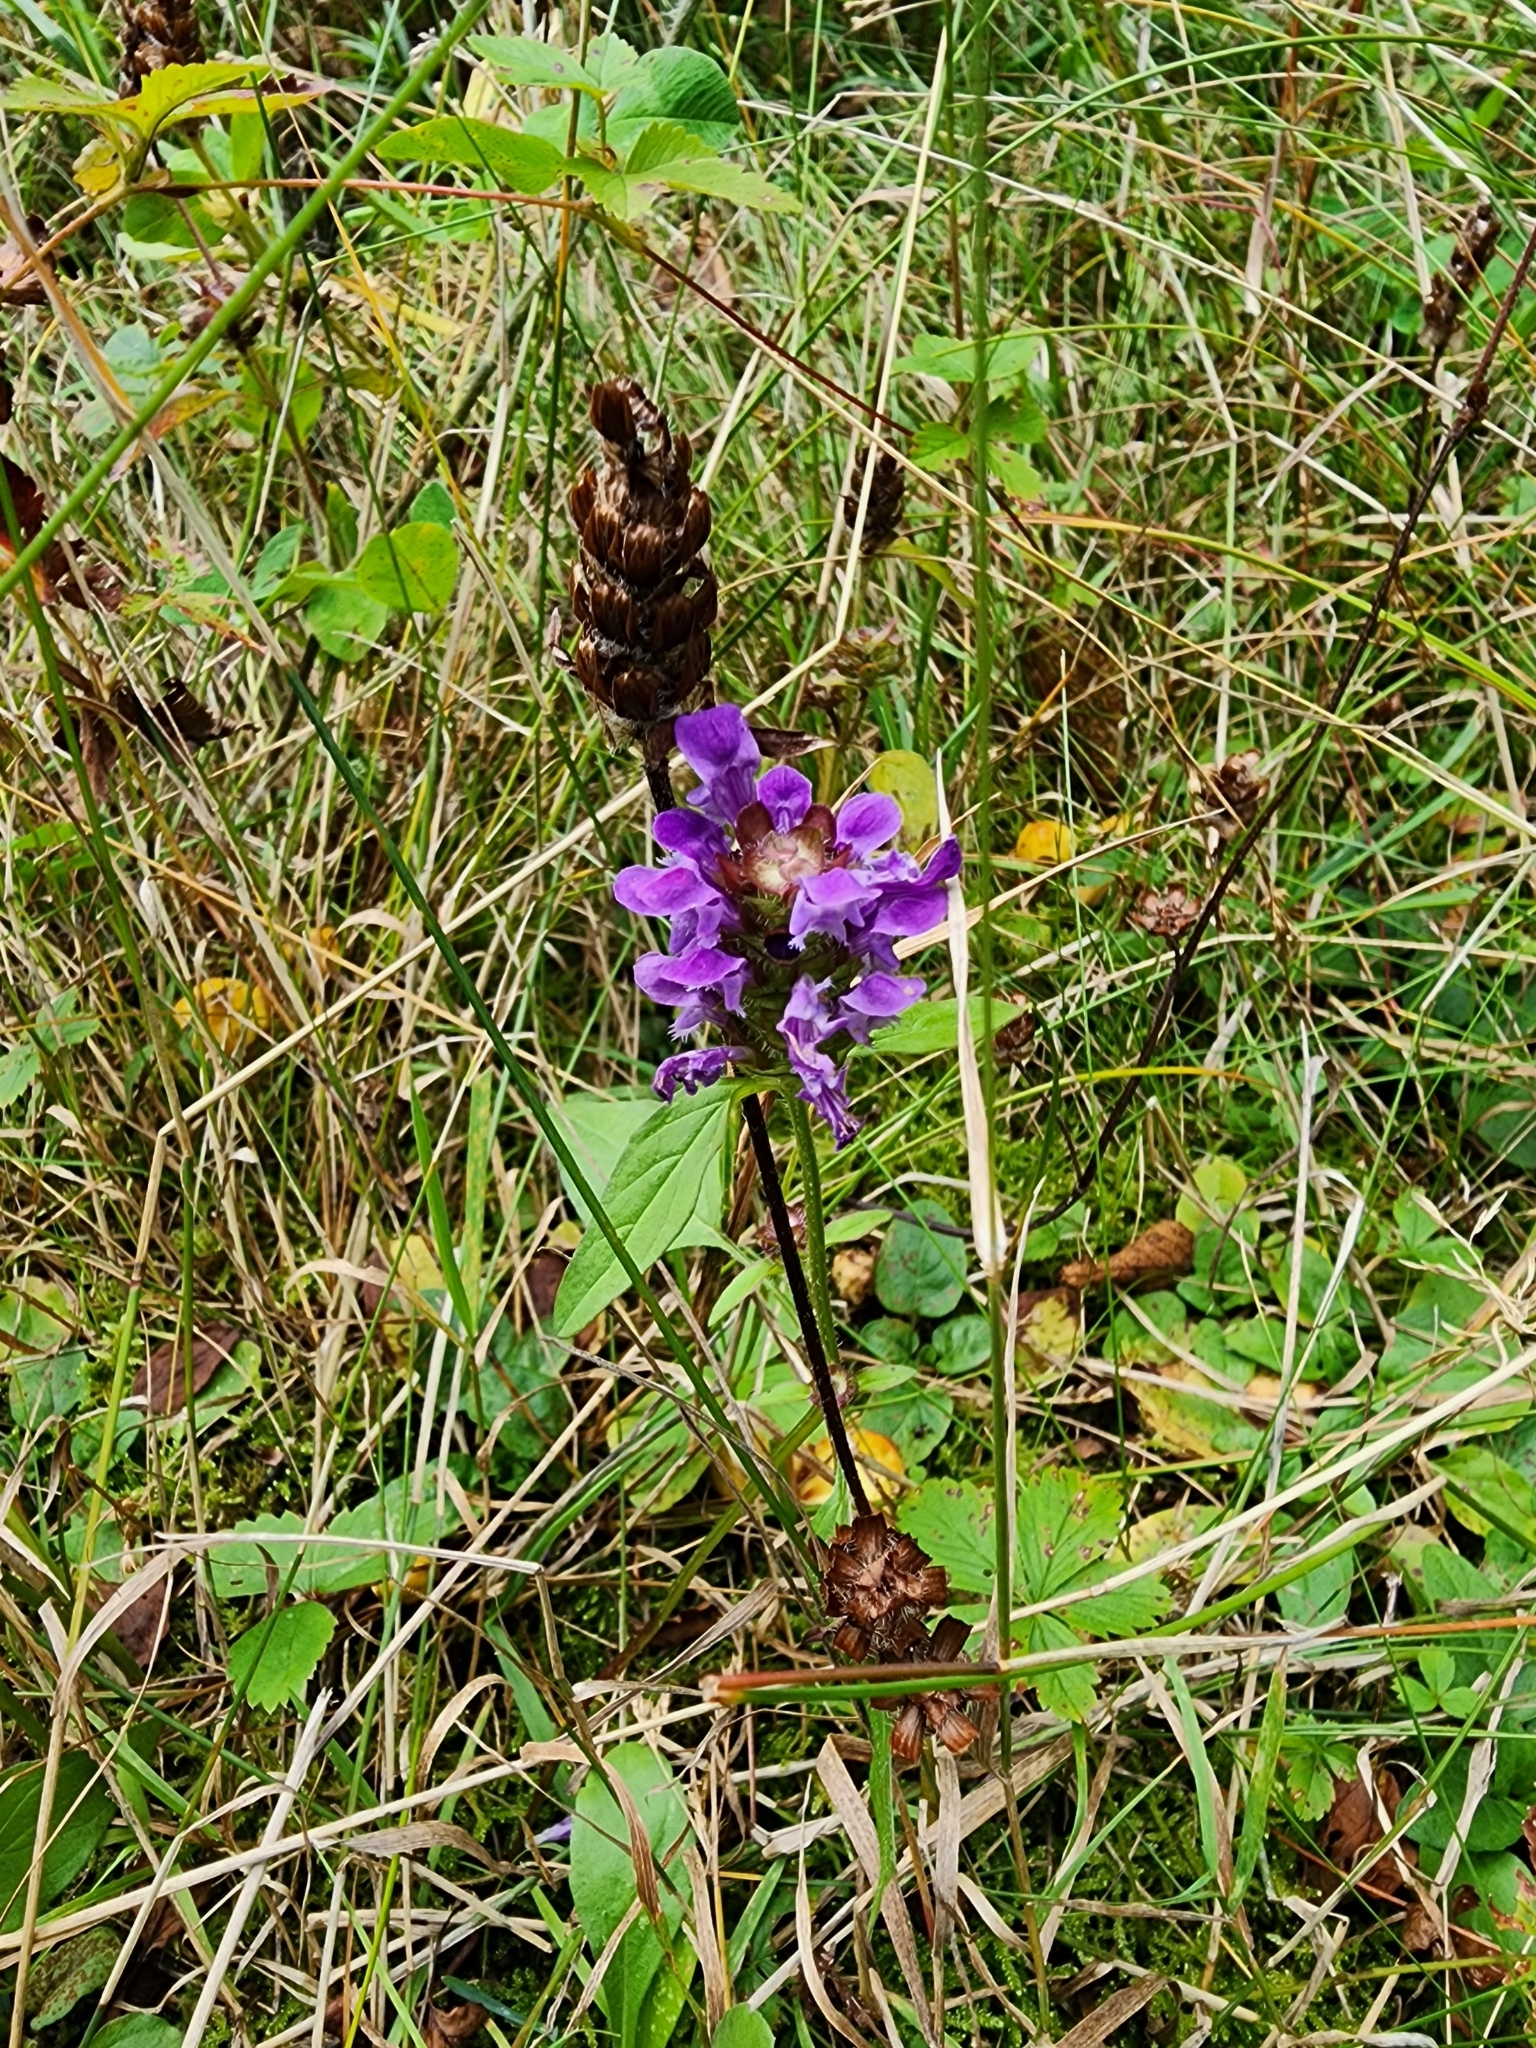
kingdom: Plantae
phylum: Tracheophyta
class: Magnoliopsida
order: Lamiales
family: Lamiaceae
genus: Prunella
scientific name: Prunella vulgaris
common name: Heal-all
